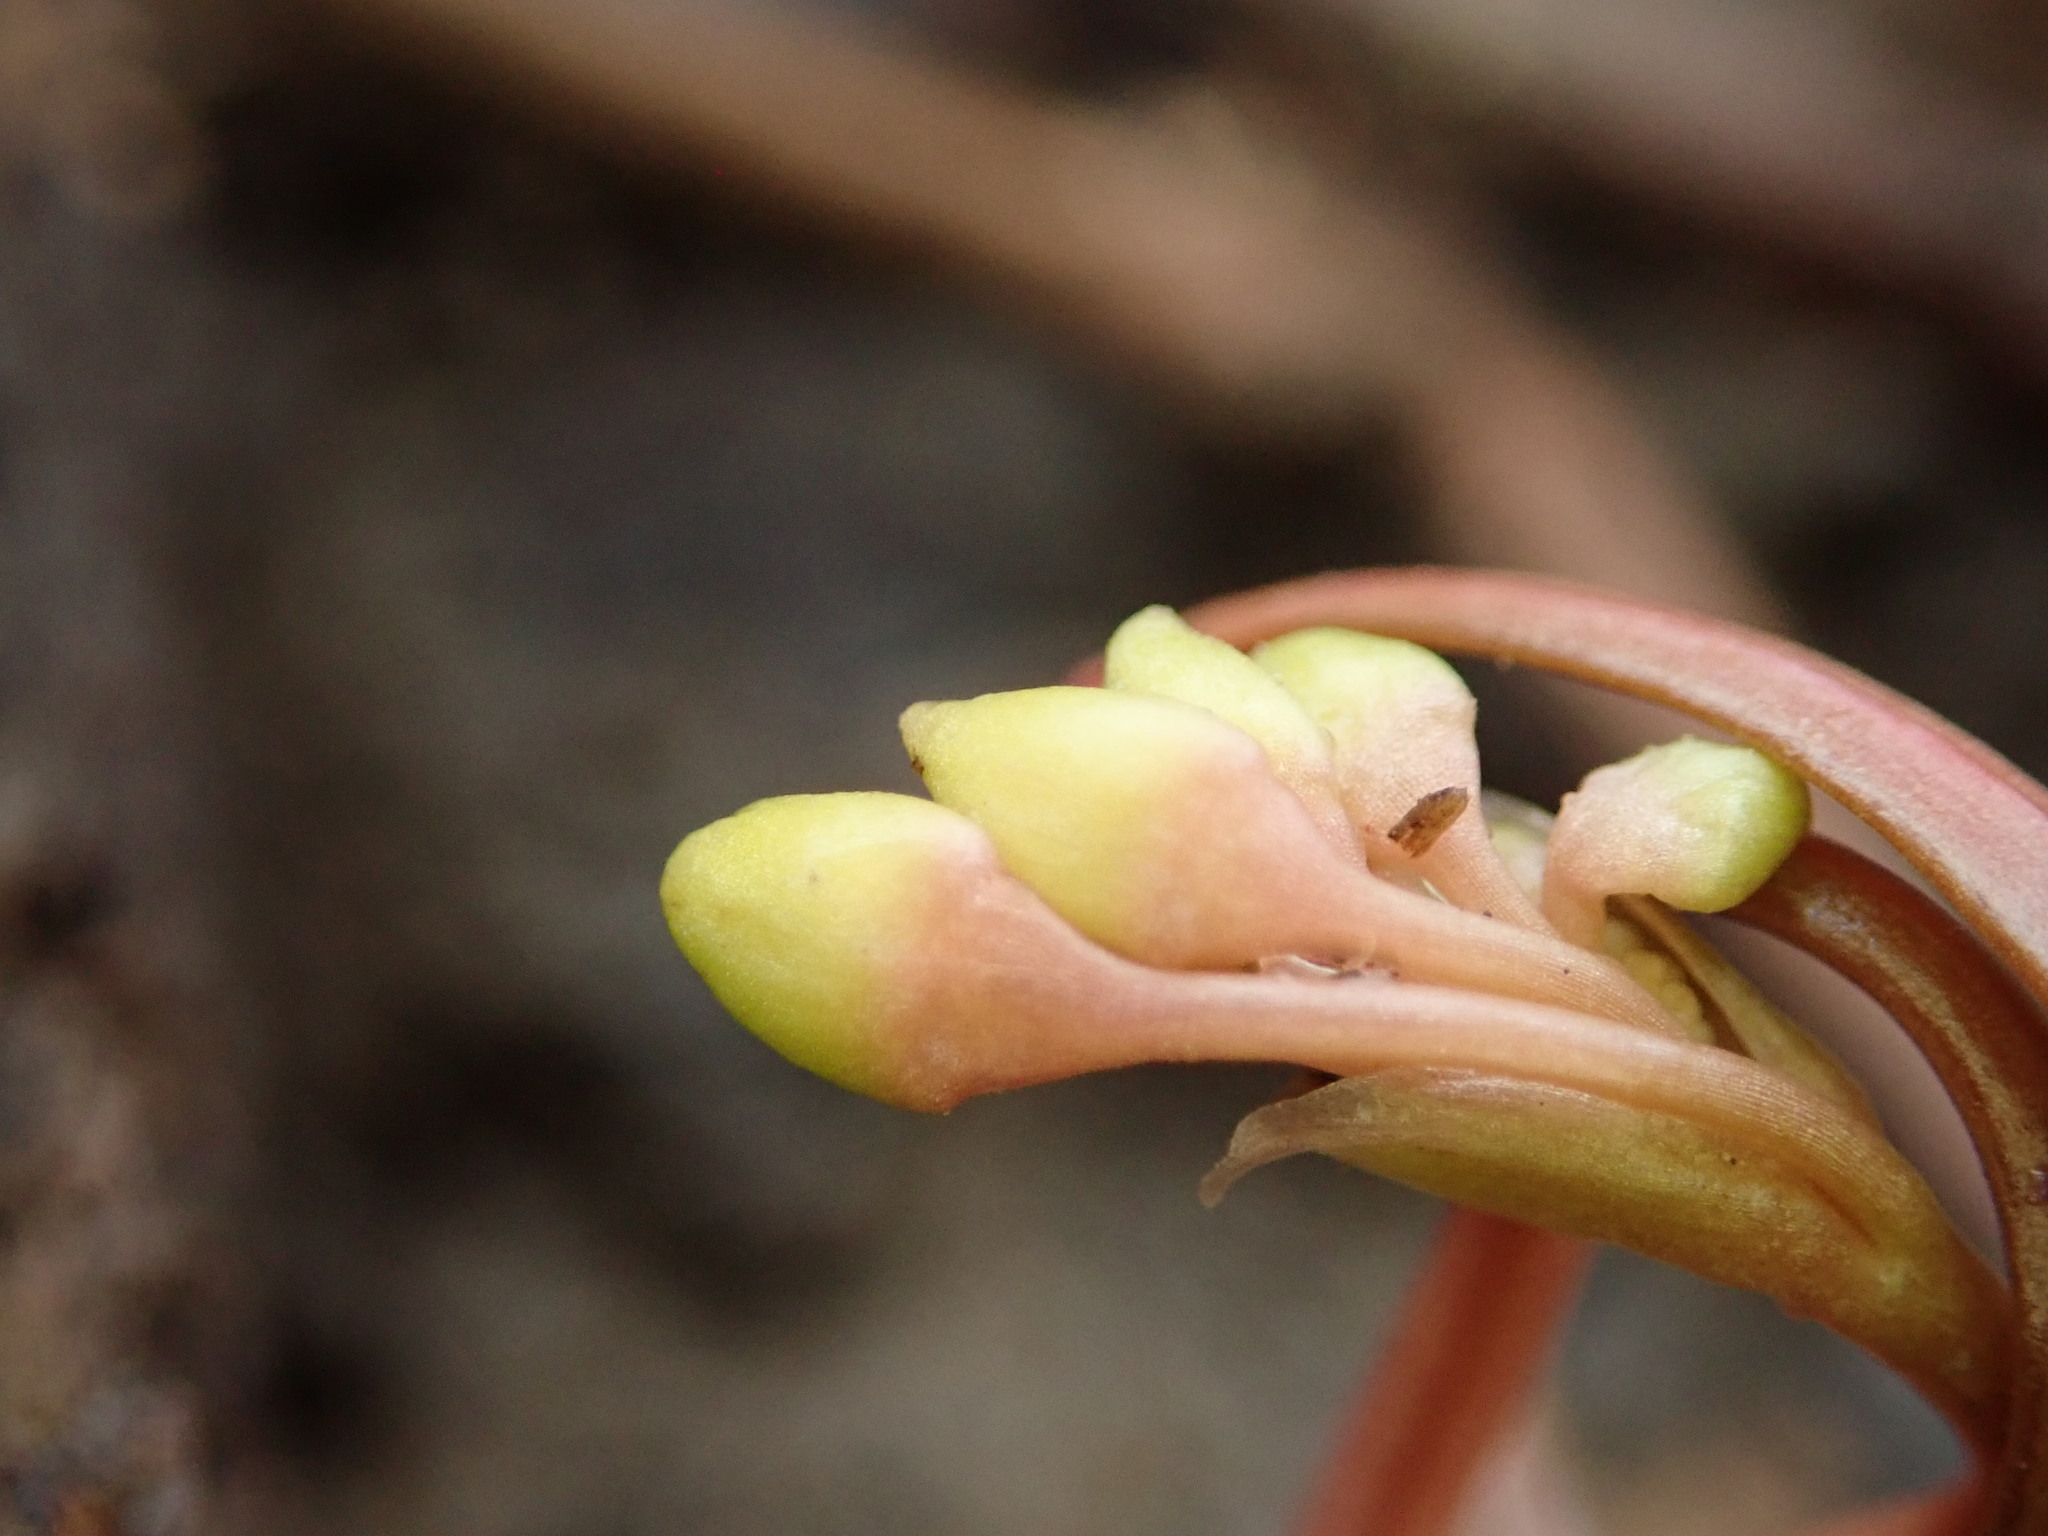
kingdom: Plantae
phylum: Tracheophyta
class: Magnoliopsida
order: Caryophyllales
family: Montiaceae
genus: Claytonia
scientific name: Claytonia virginica
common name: Virginia springbeauty
